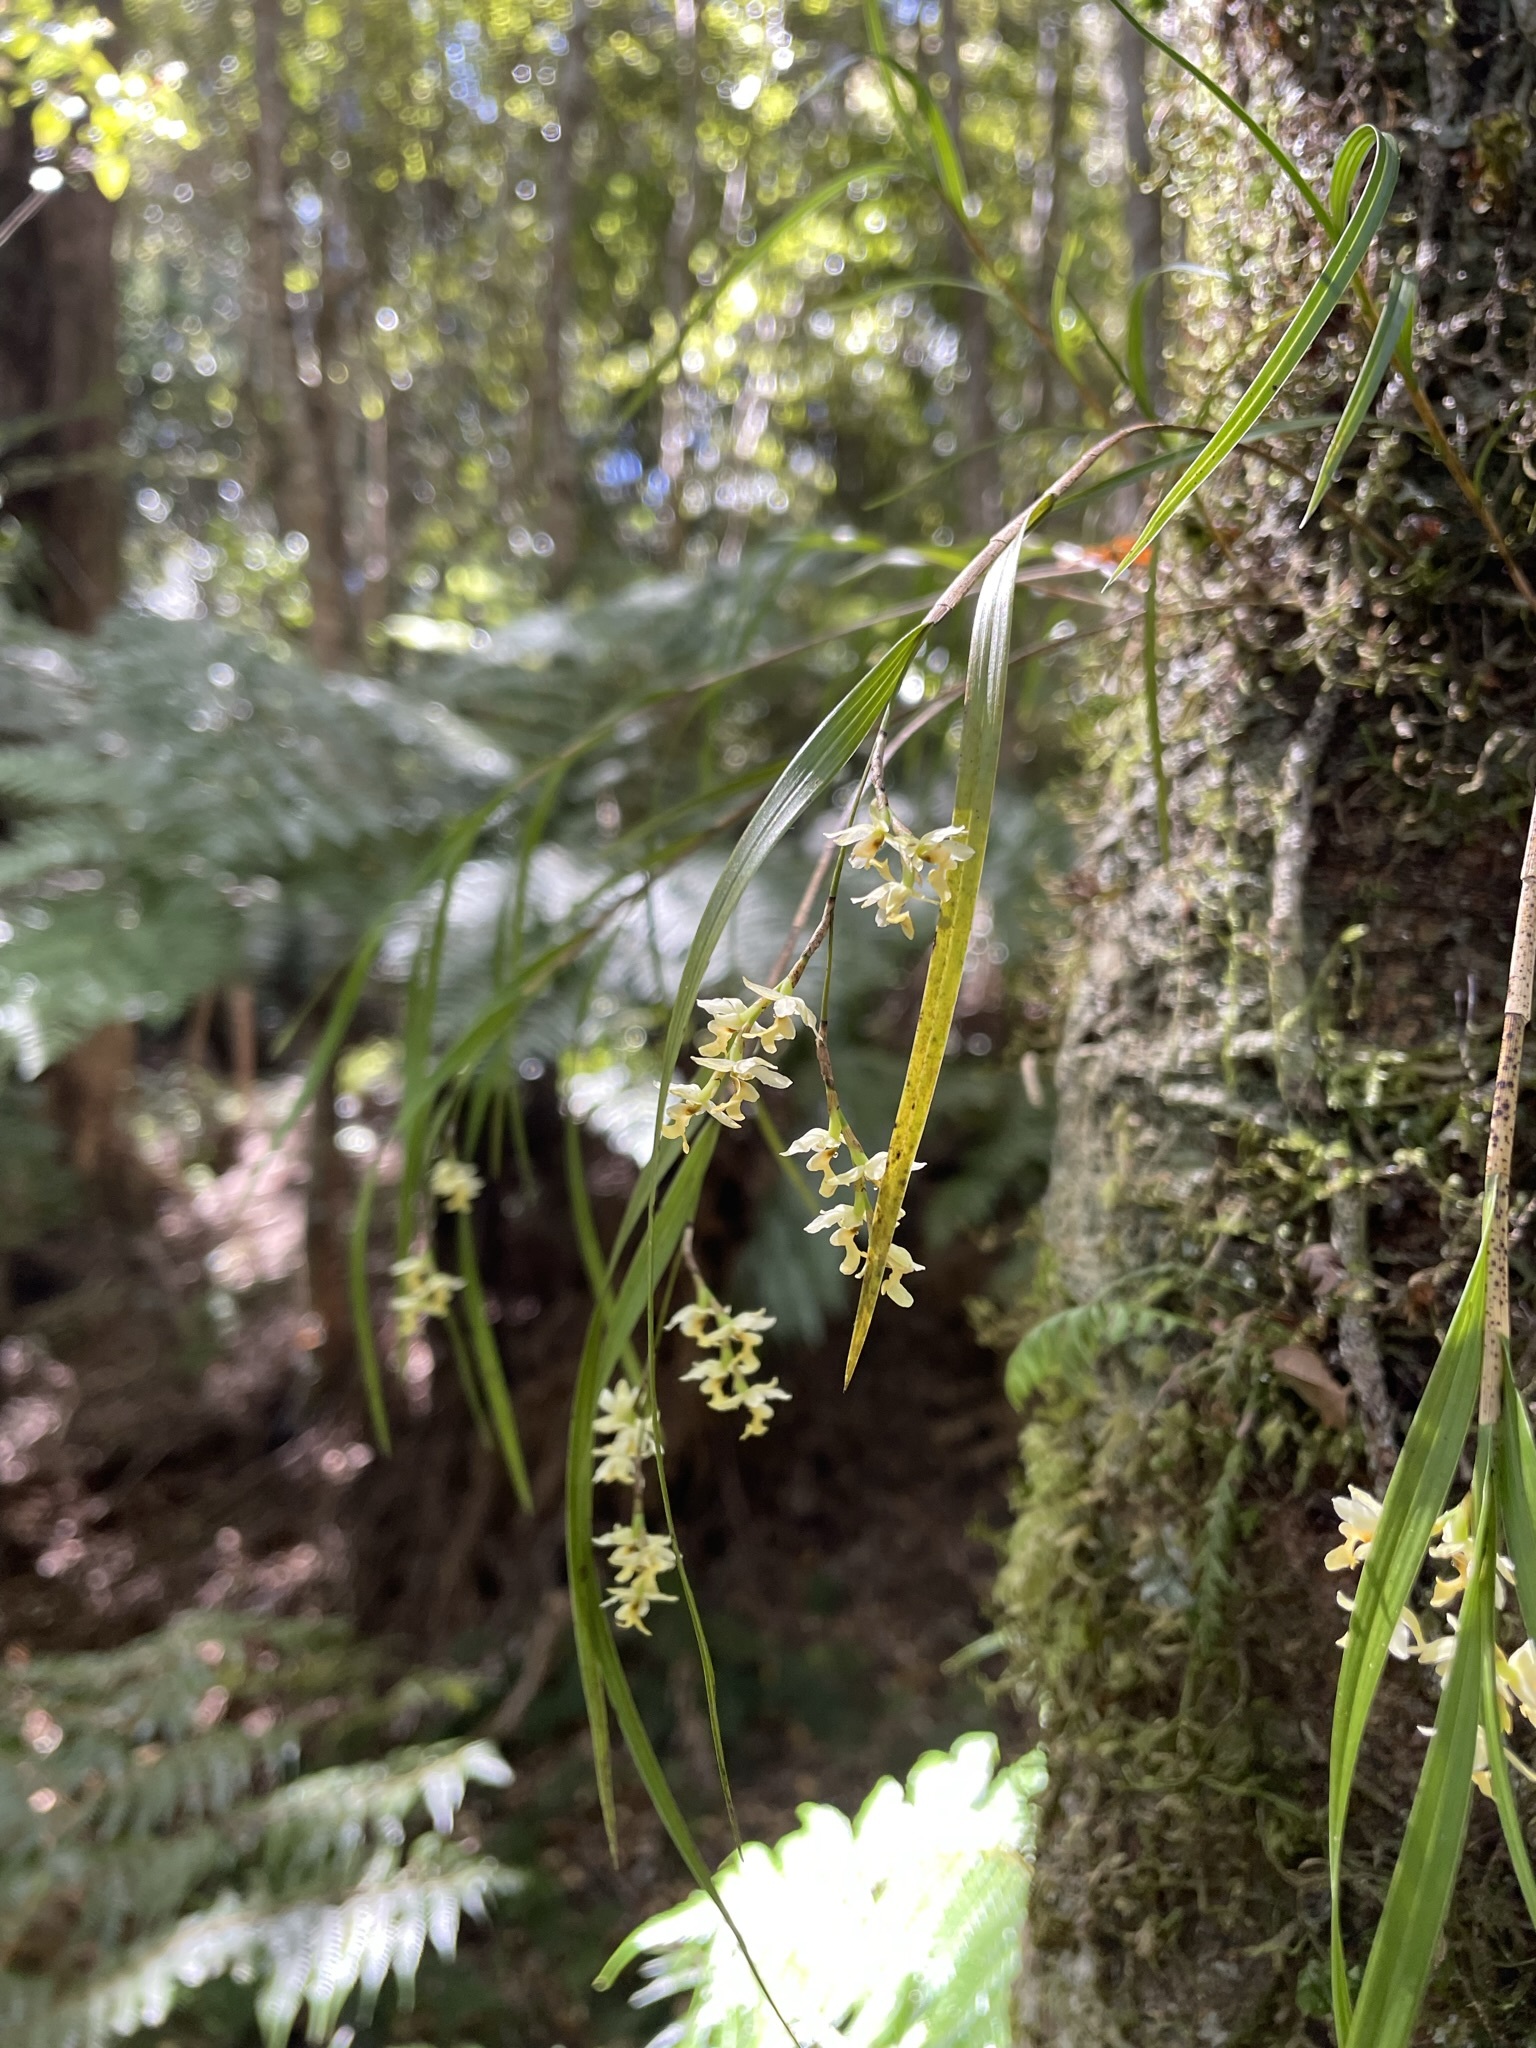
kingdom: Plantae
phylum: Tracheophyta
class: Liliopsida
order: Asparagales
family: Orchidaceae
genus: Earina
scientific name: Earina mucronata
